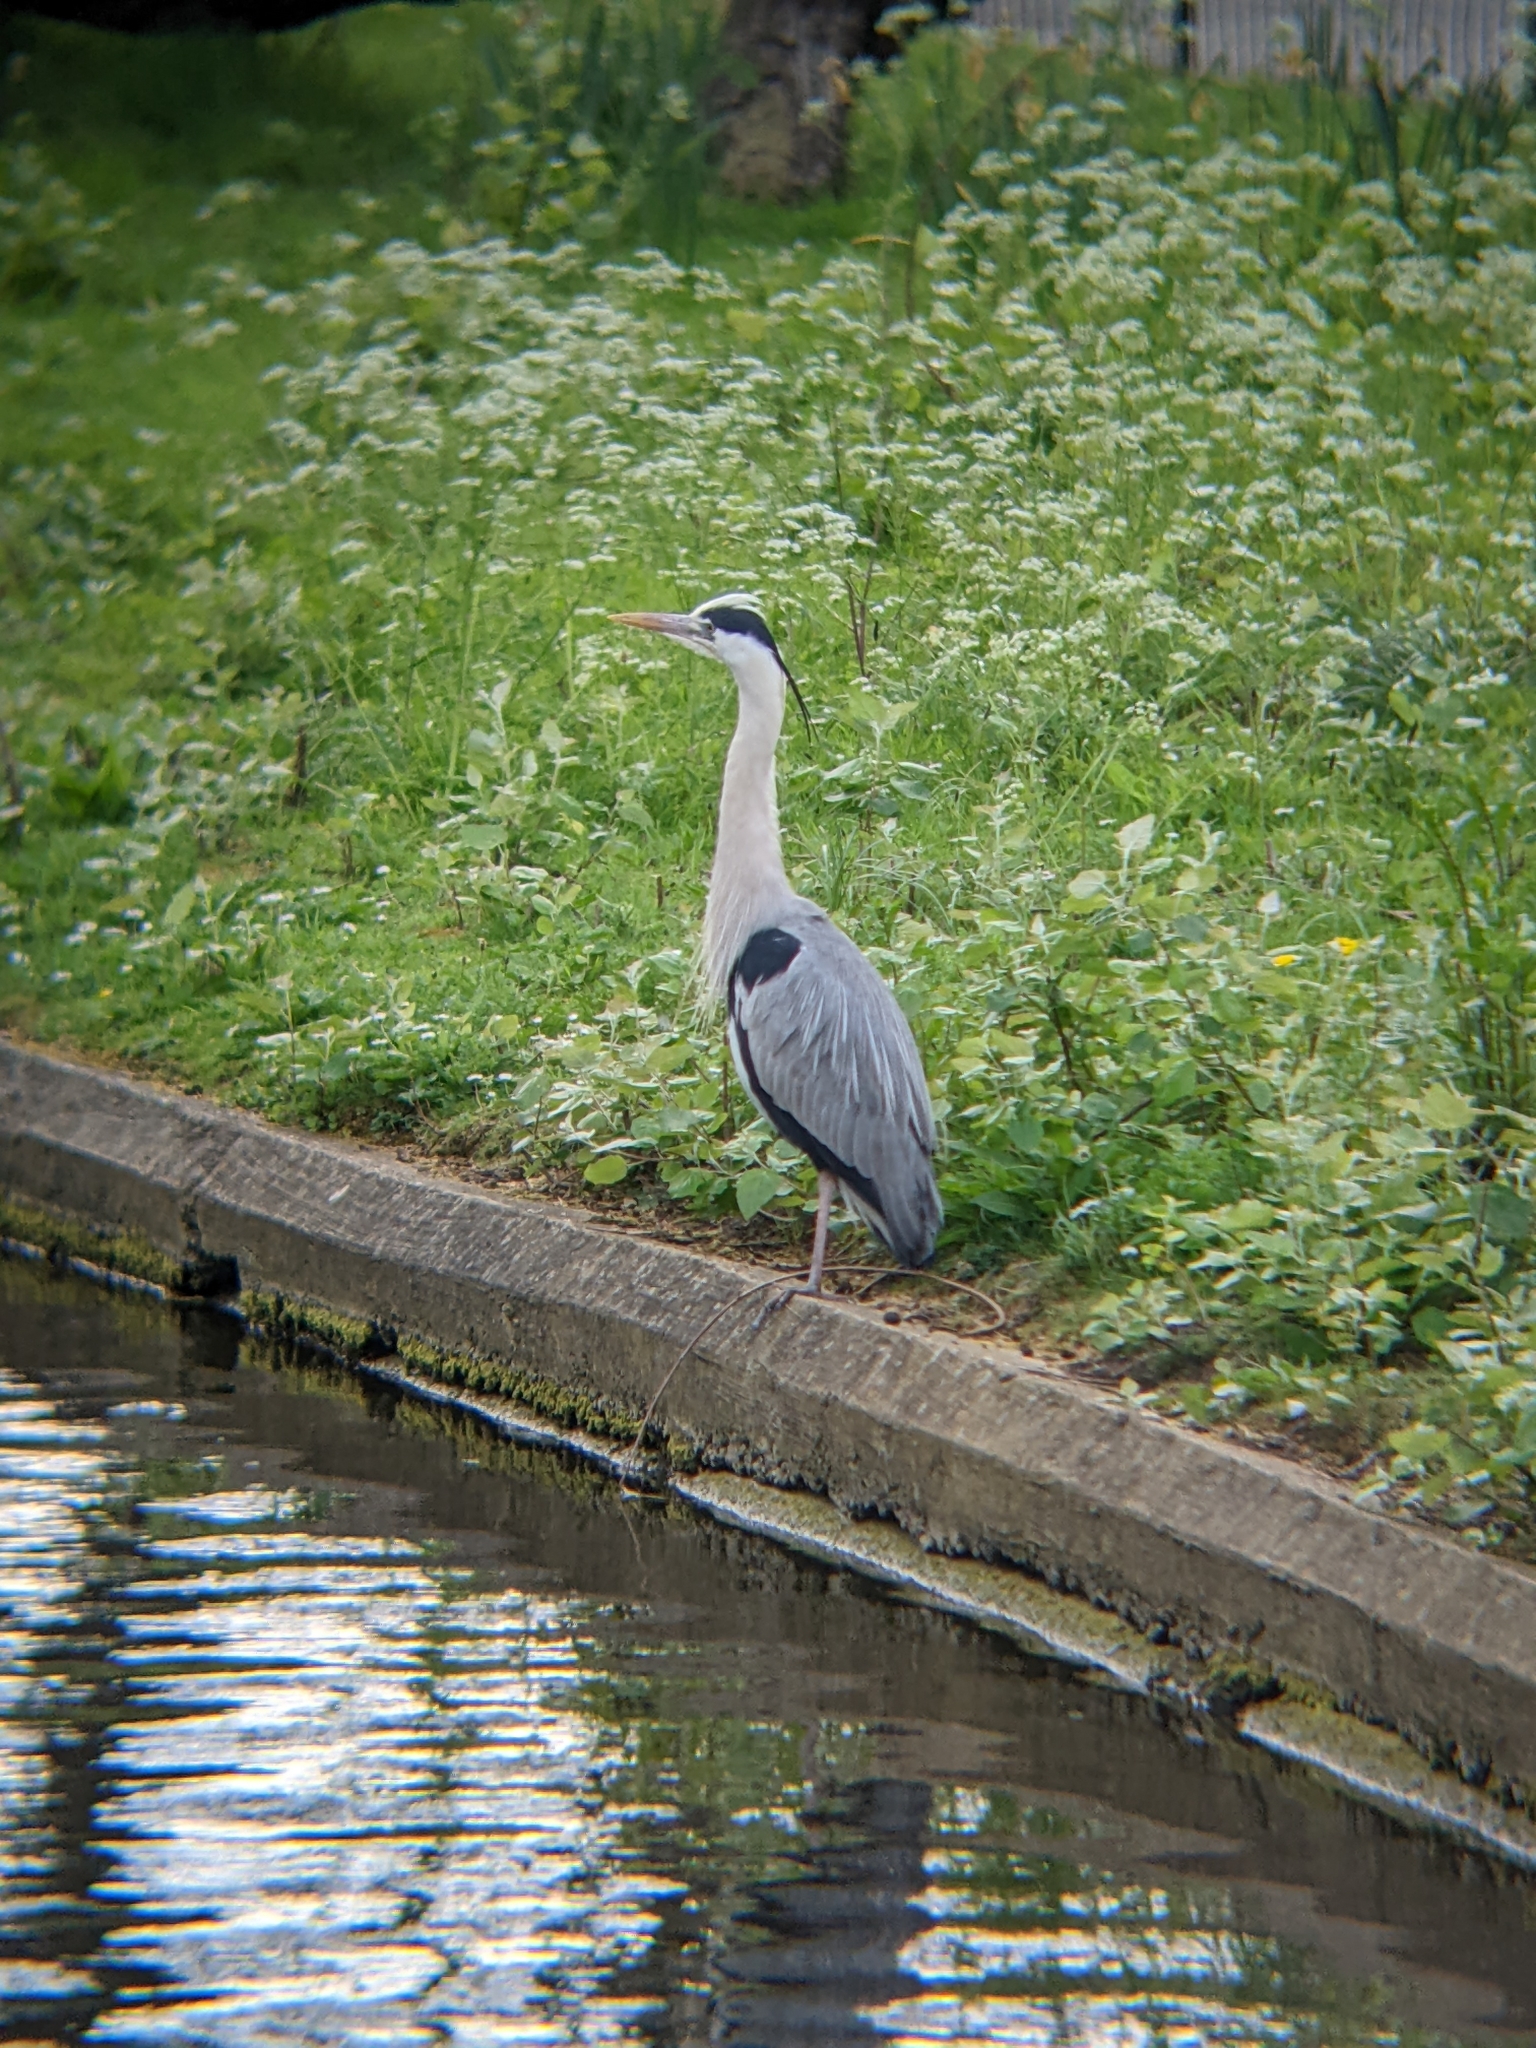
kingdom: Animalia
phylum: Chordata
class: Aves
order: Pelecaniformes
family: Ardeidae
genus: Ardea
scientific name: Ardea cinerea
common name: Grey heron
